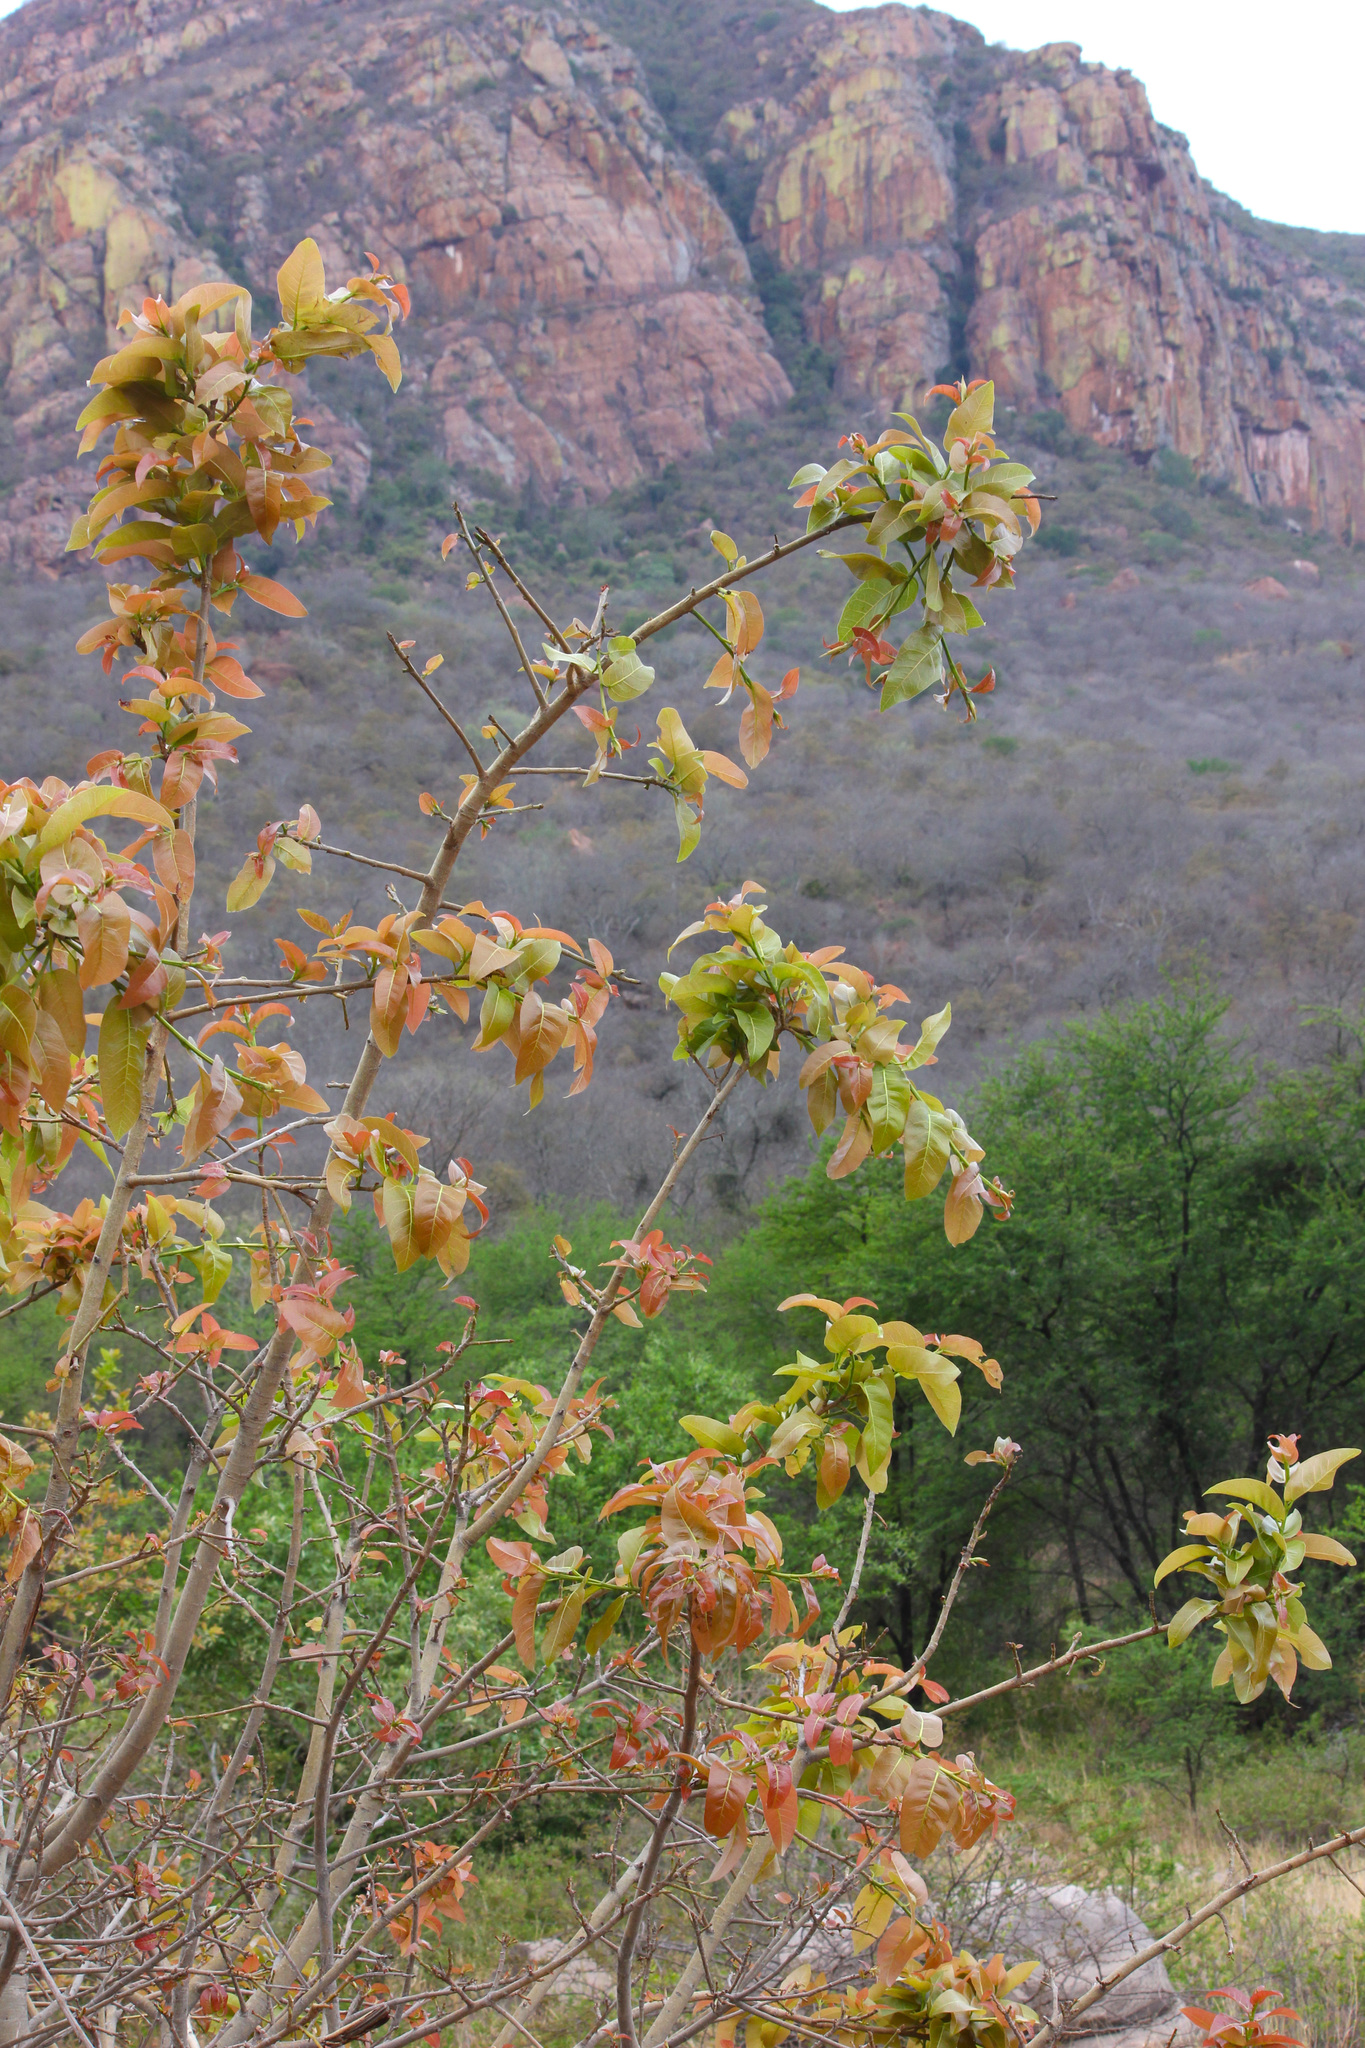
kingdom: Plantae
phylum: Tracheophyta
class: Magnoliopsida
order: Rosales
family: Moraceae
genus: Ficus
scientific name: Ficus ingens
